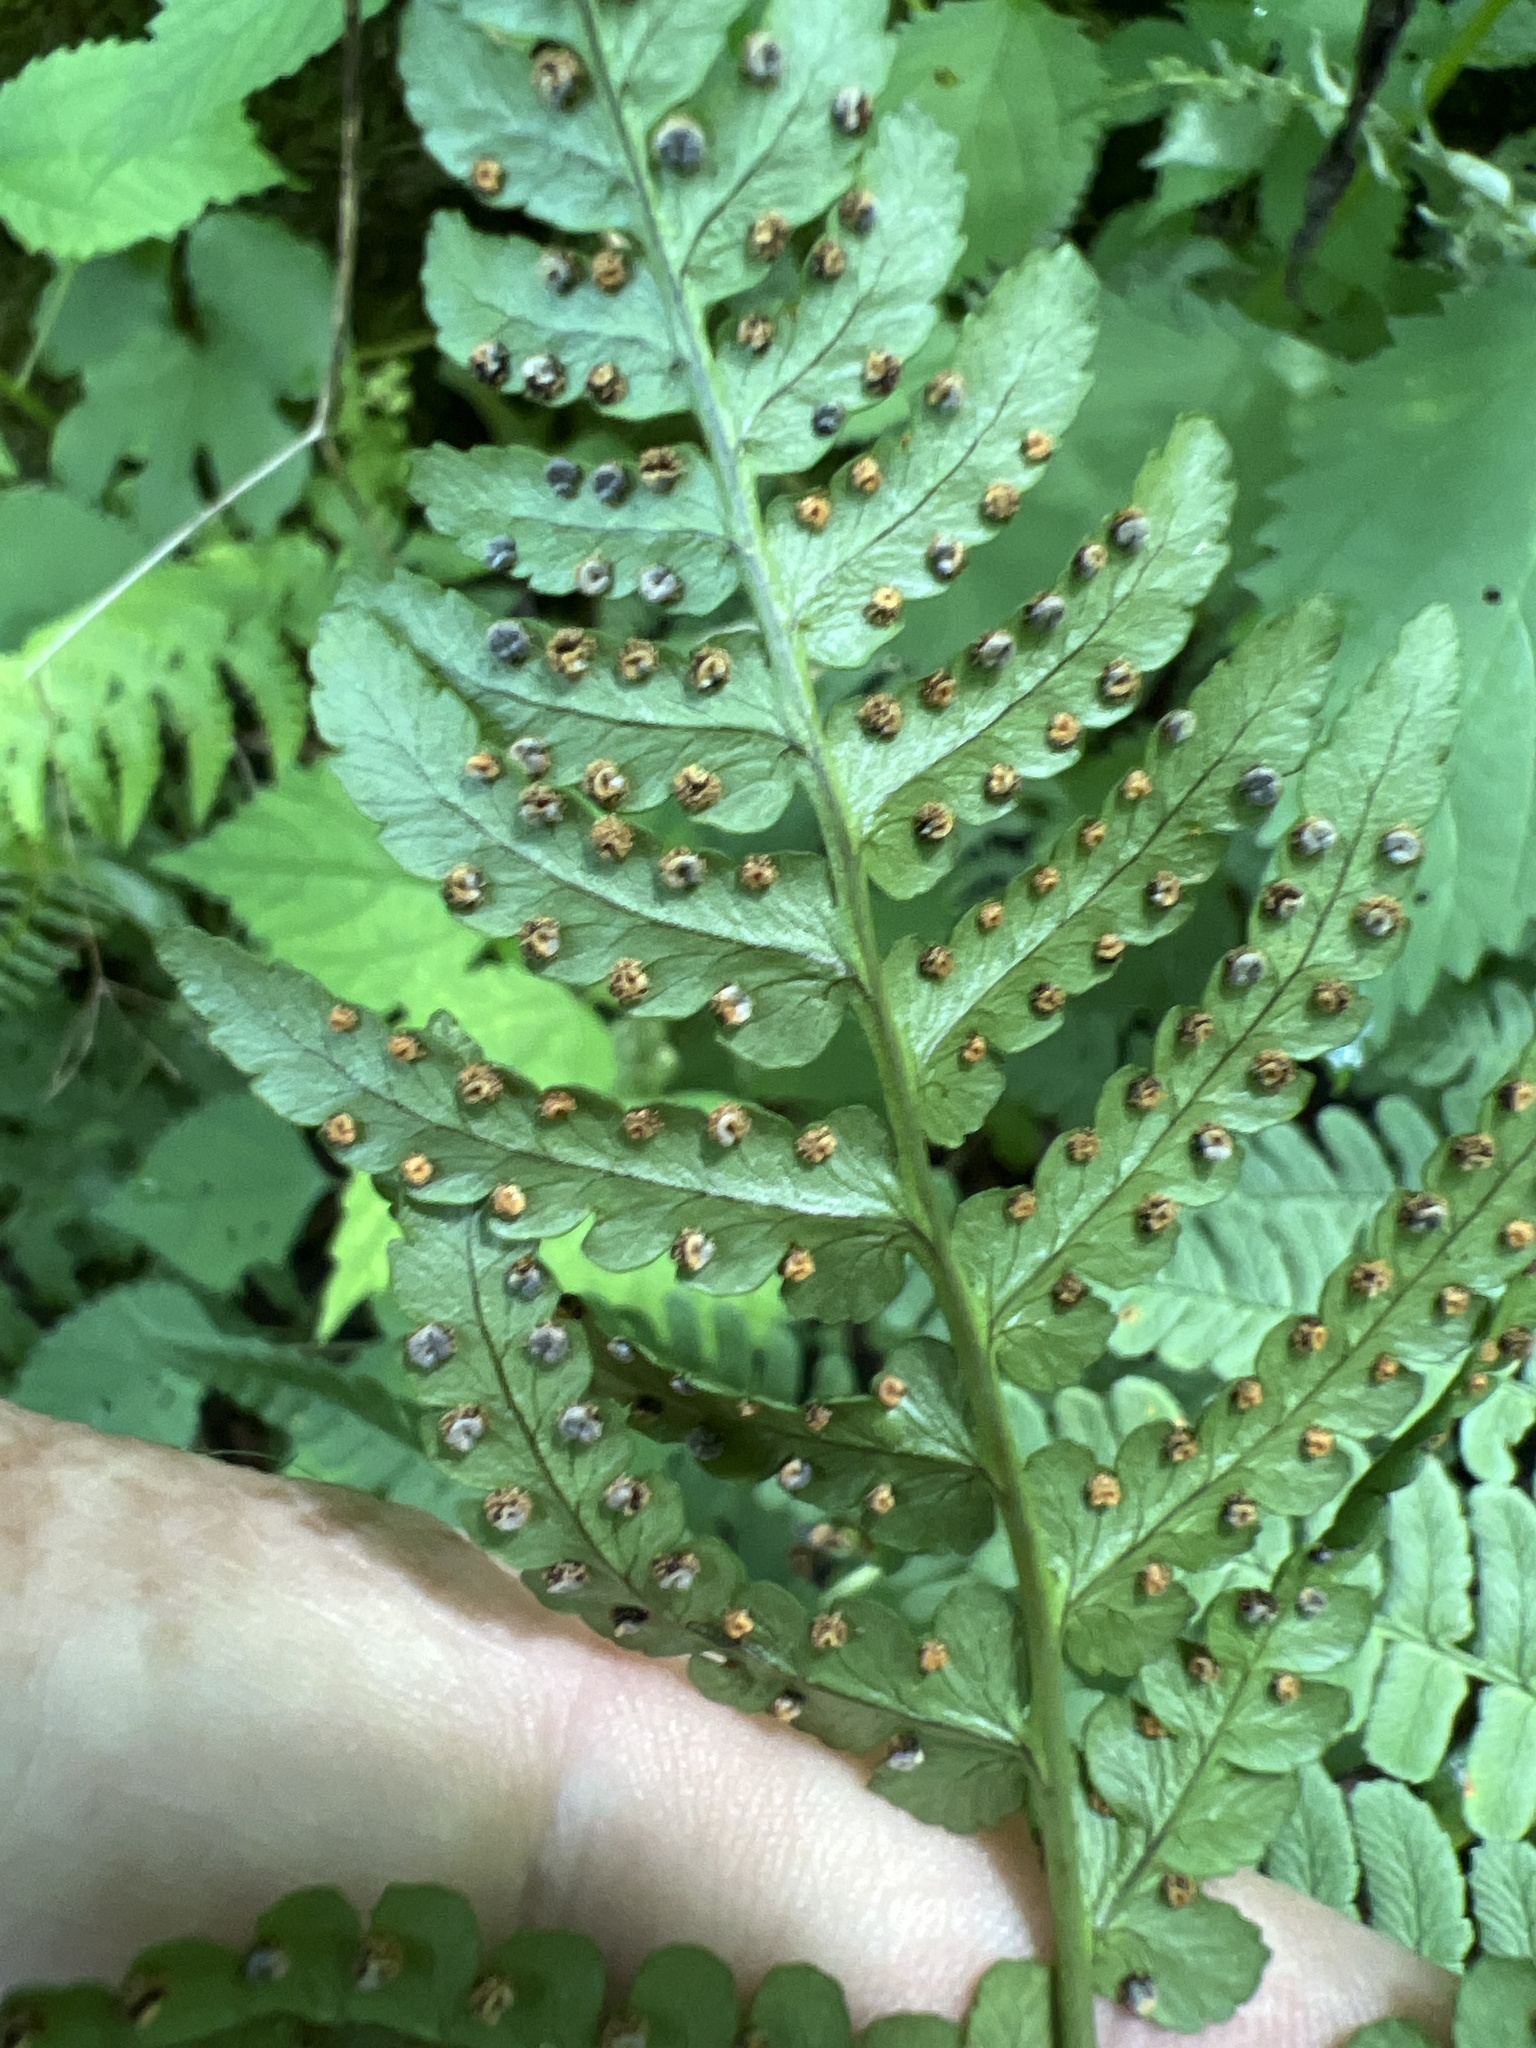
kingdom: Plantae
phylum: Tracheophyta
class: Polypodiopsida
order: Polypodiales
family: Dryopteridaceae
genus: Dryopteris
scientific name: Dryopteris marginalis
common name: Marginal wood fern
